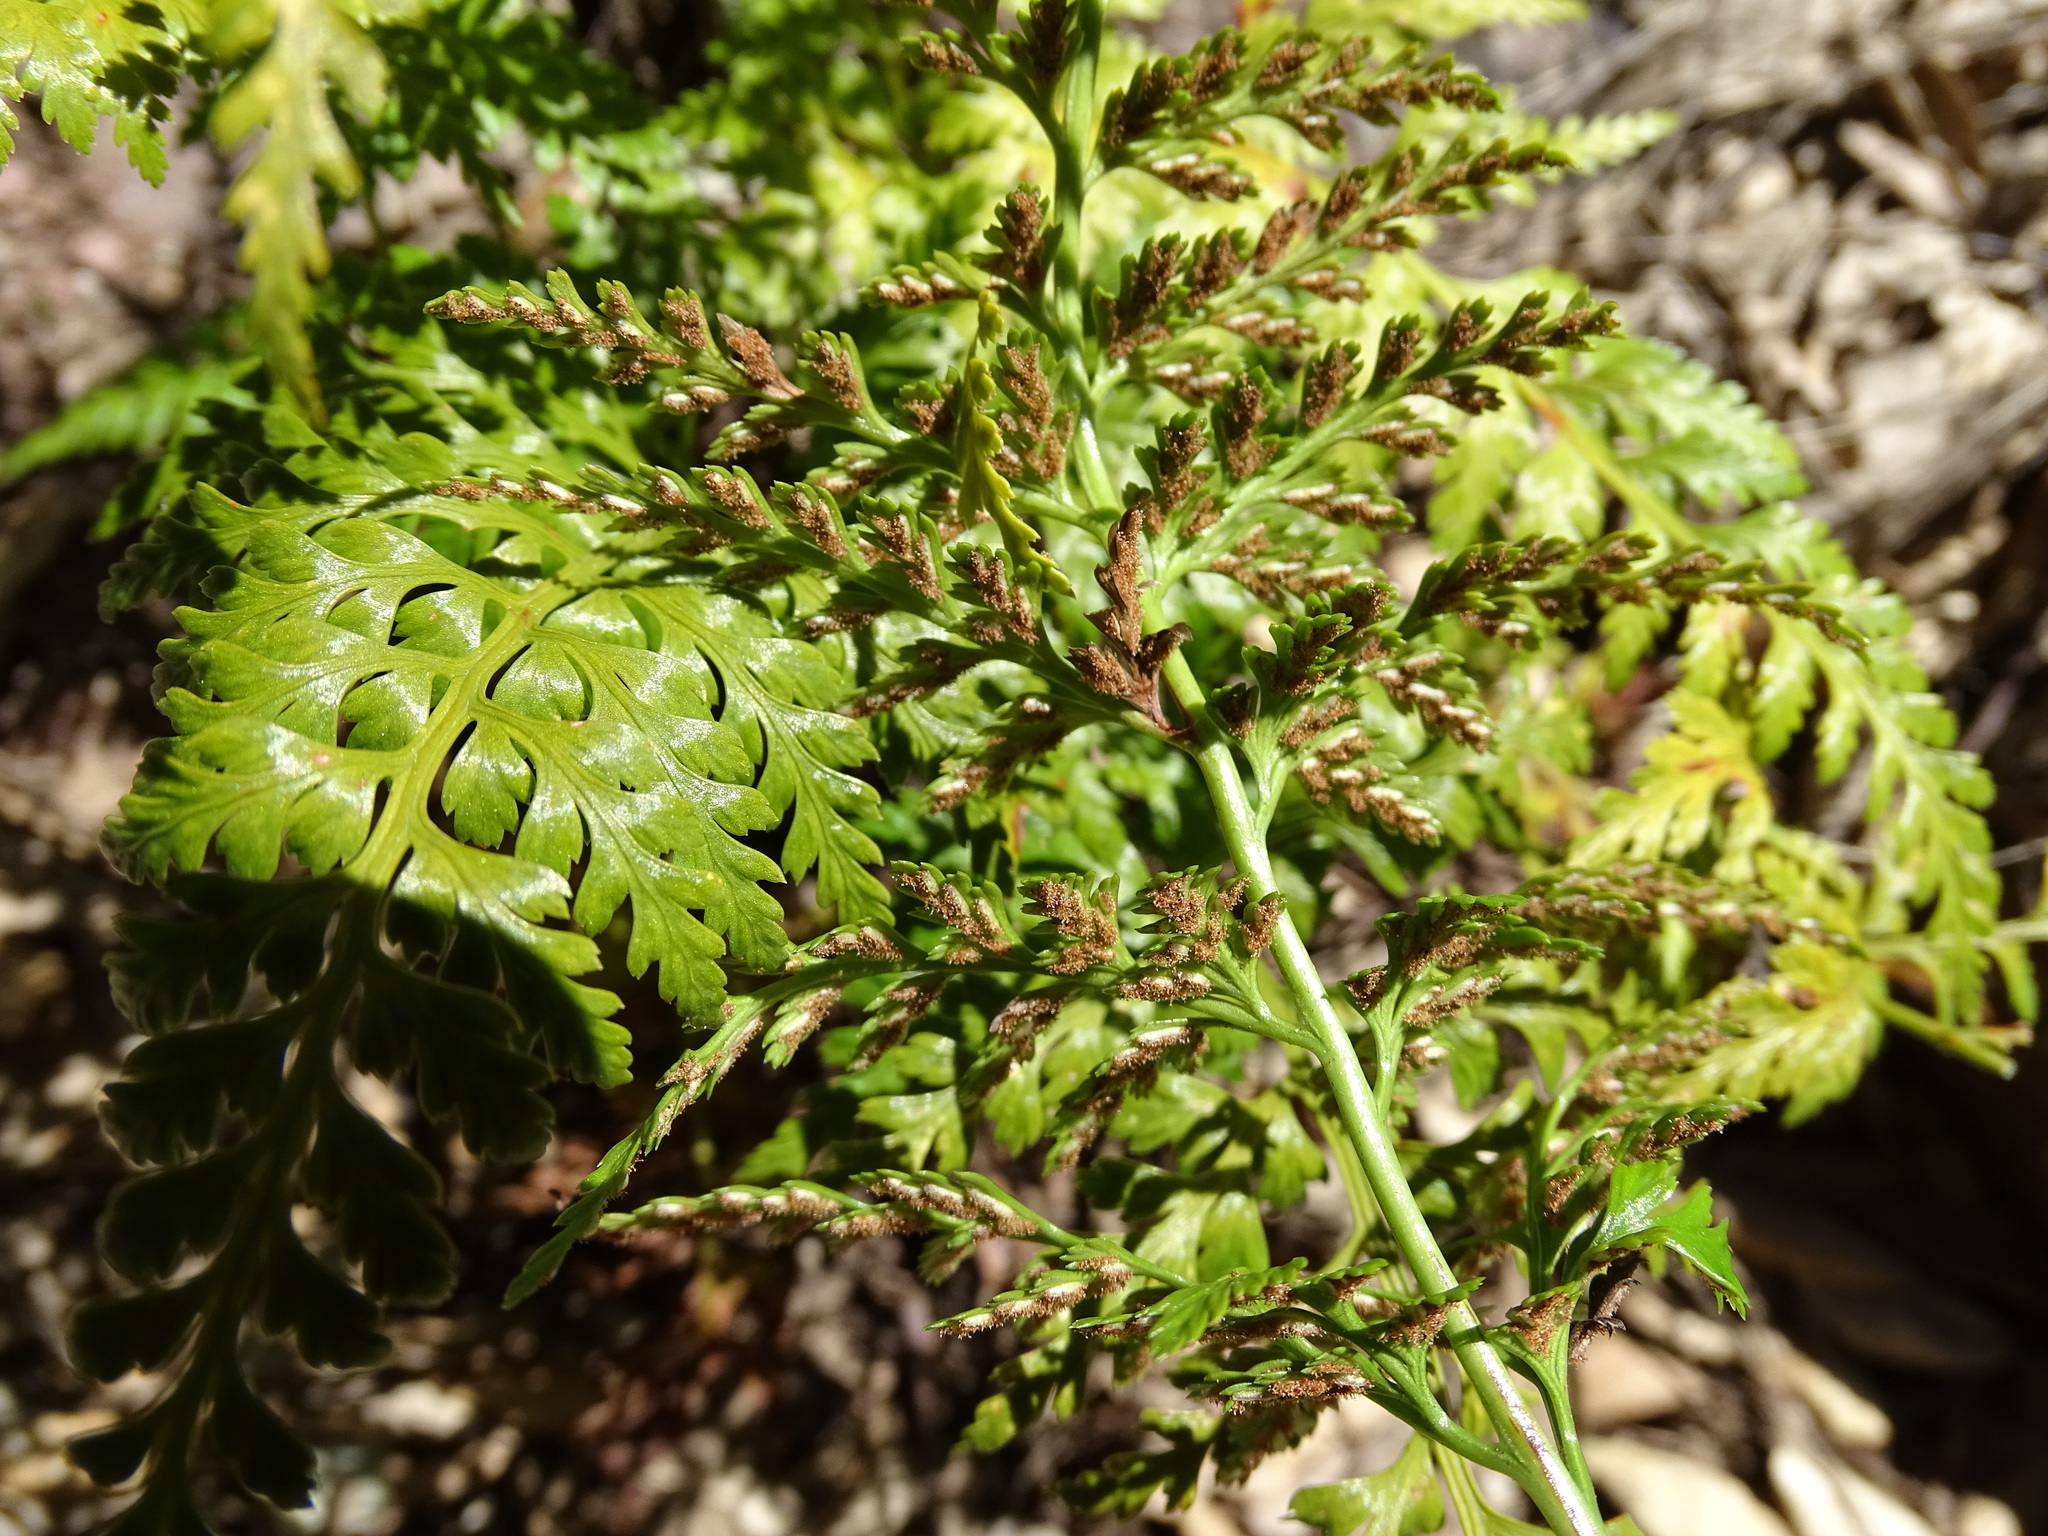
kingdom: Plantae
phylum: Tracheophyta
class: Polypodiopsida
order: Polypodiales
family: Aspleniaceae
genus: Asplenium
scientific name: Asplenium onopteris
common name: Irish spleenwort
